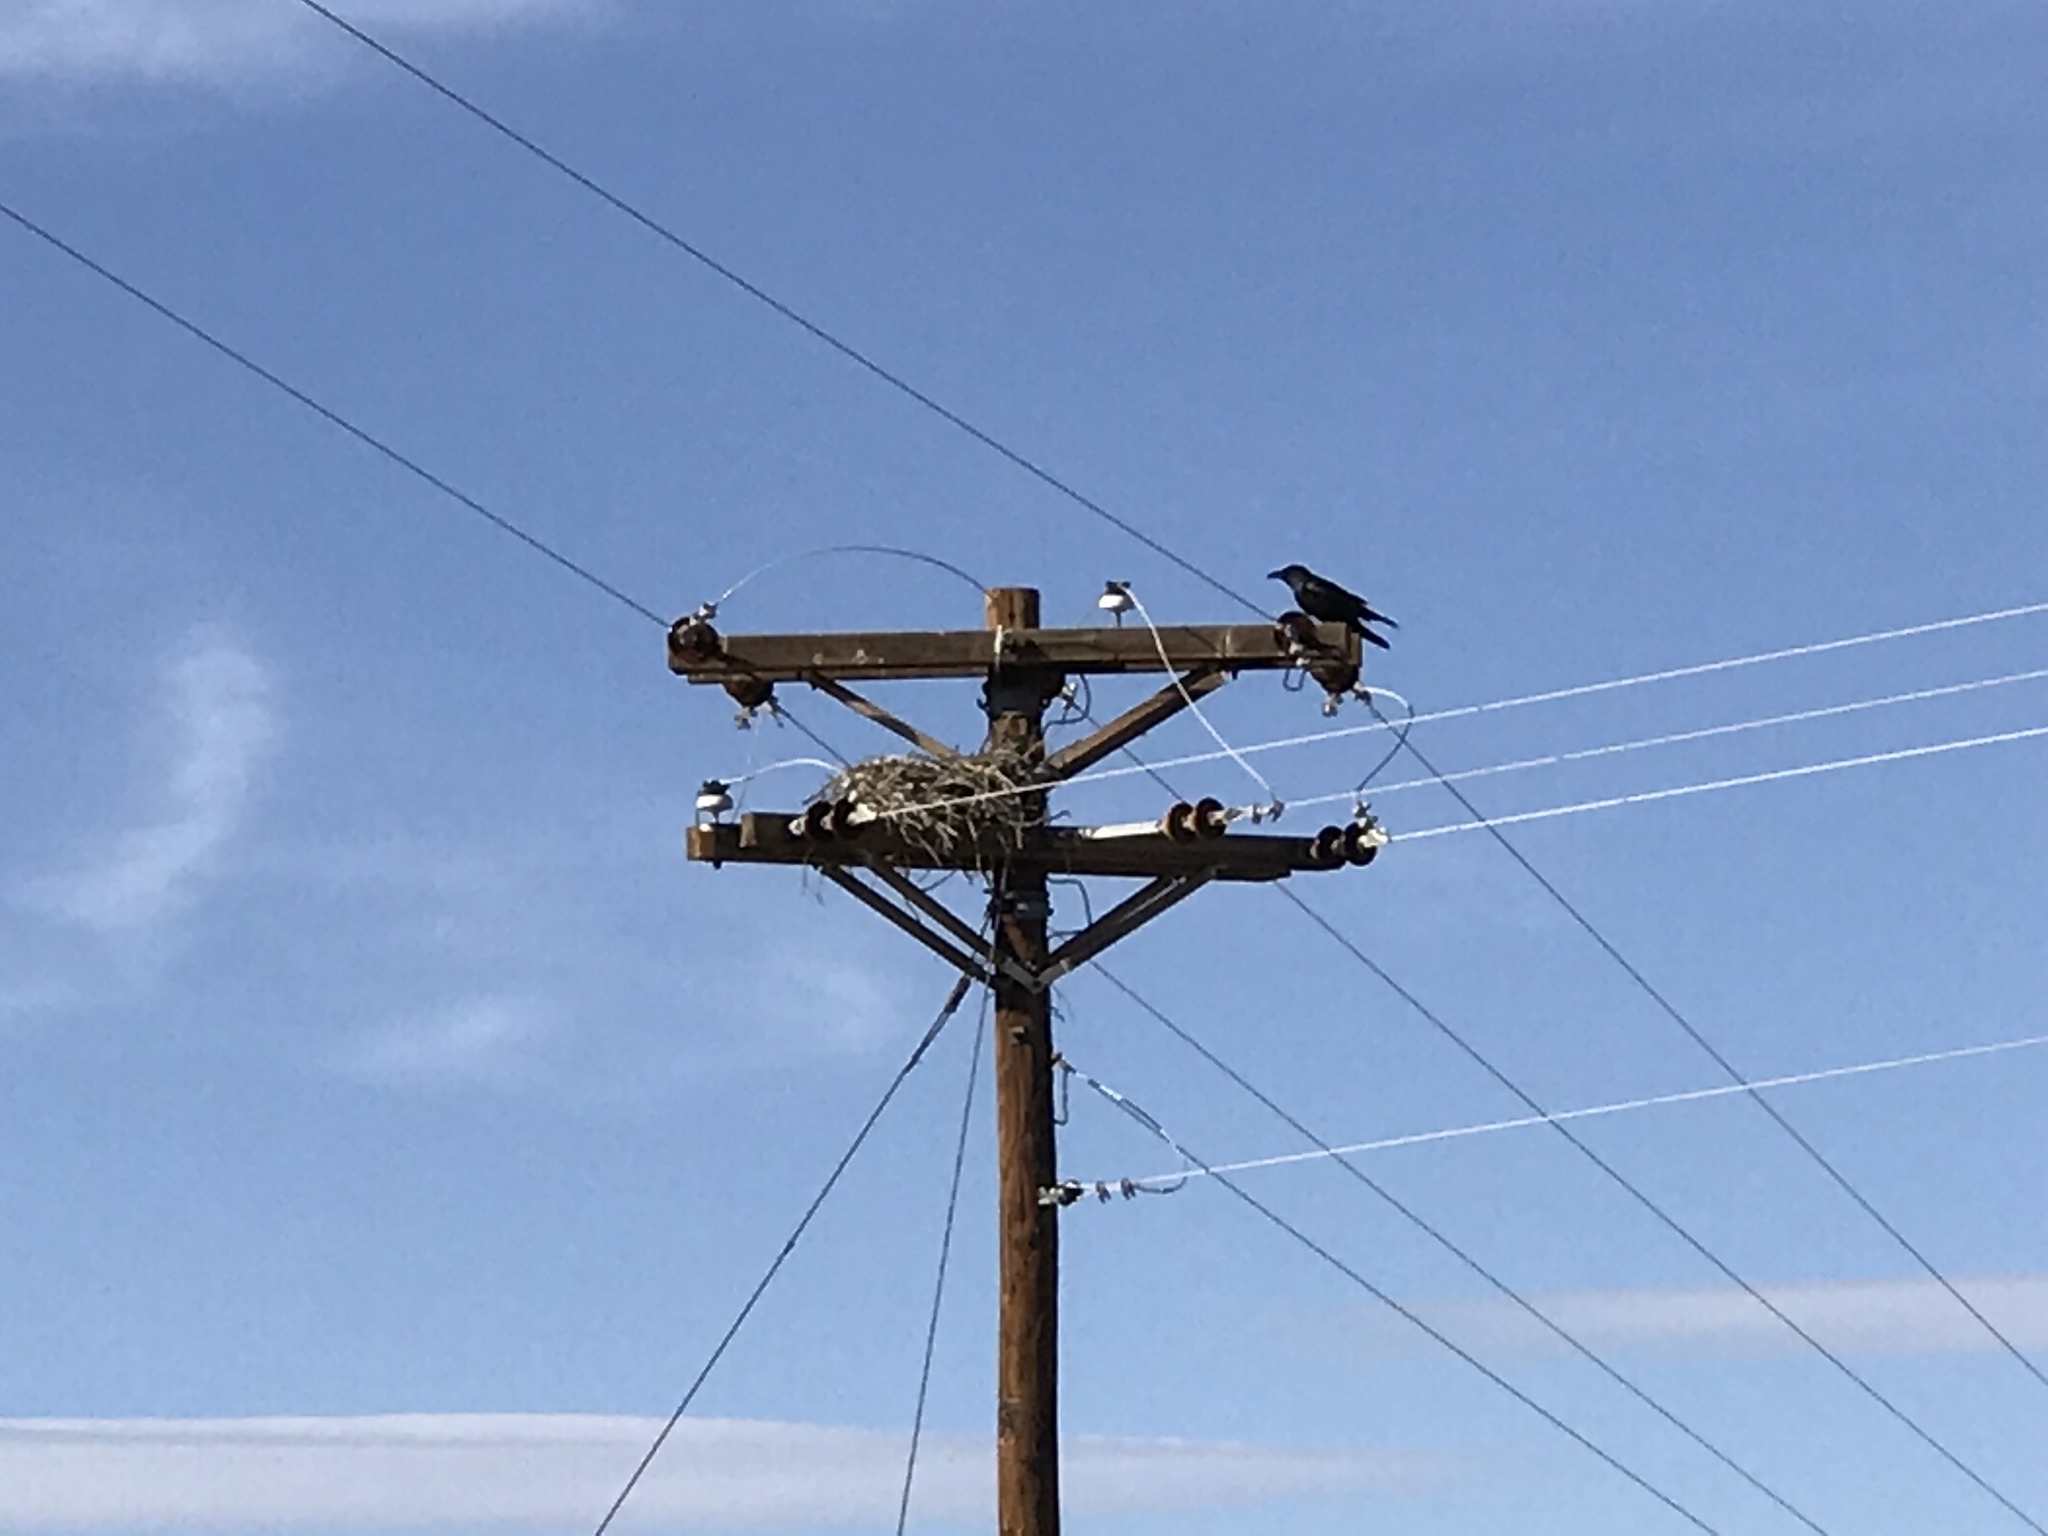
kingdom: Animalia
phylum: Chordata
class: Aves
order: Passeriformes
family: Corvidae
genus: Corvus
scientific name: Corvus corax
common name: Common raven
